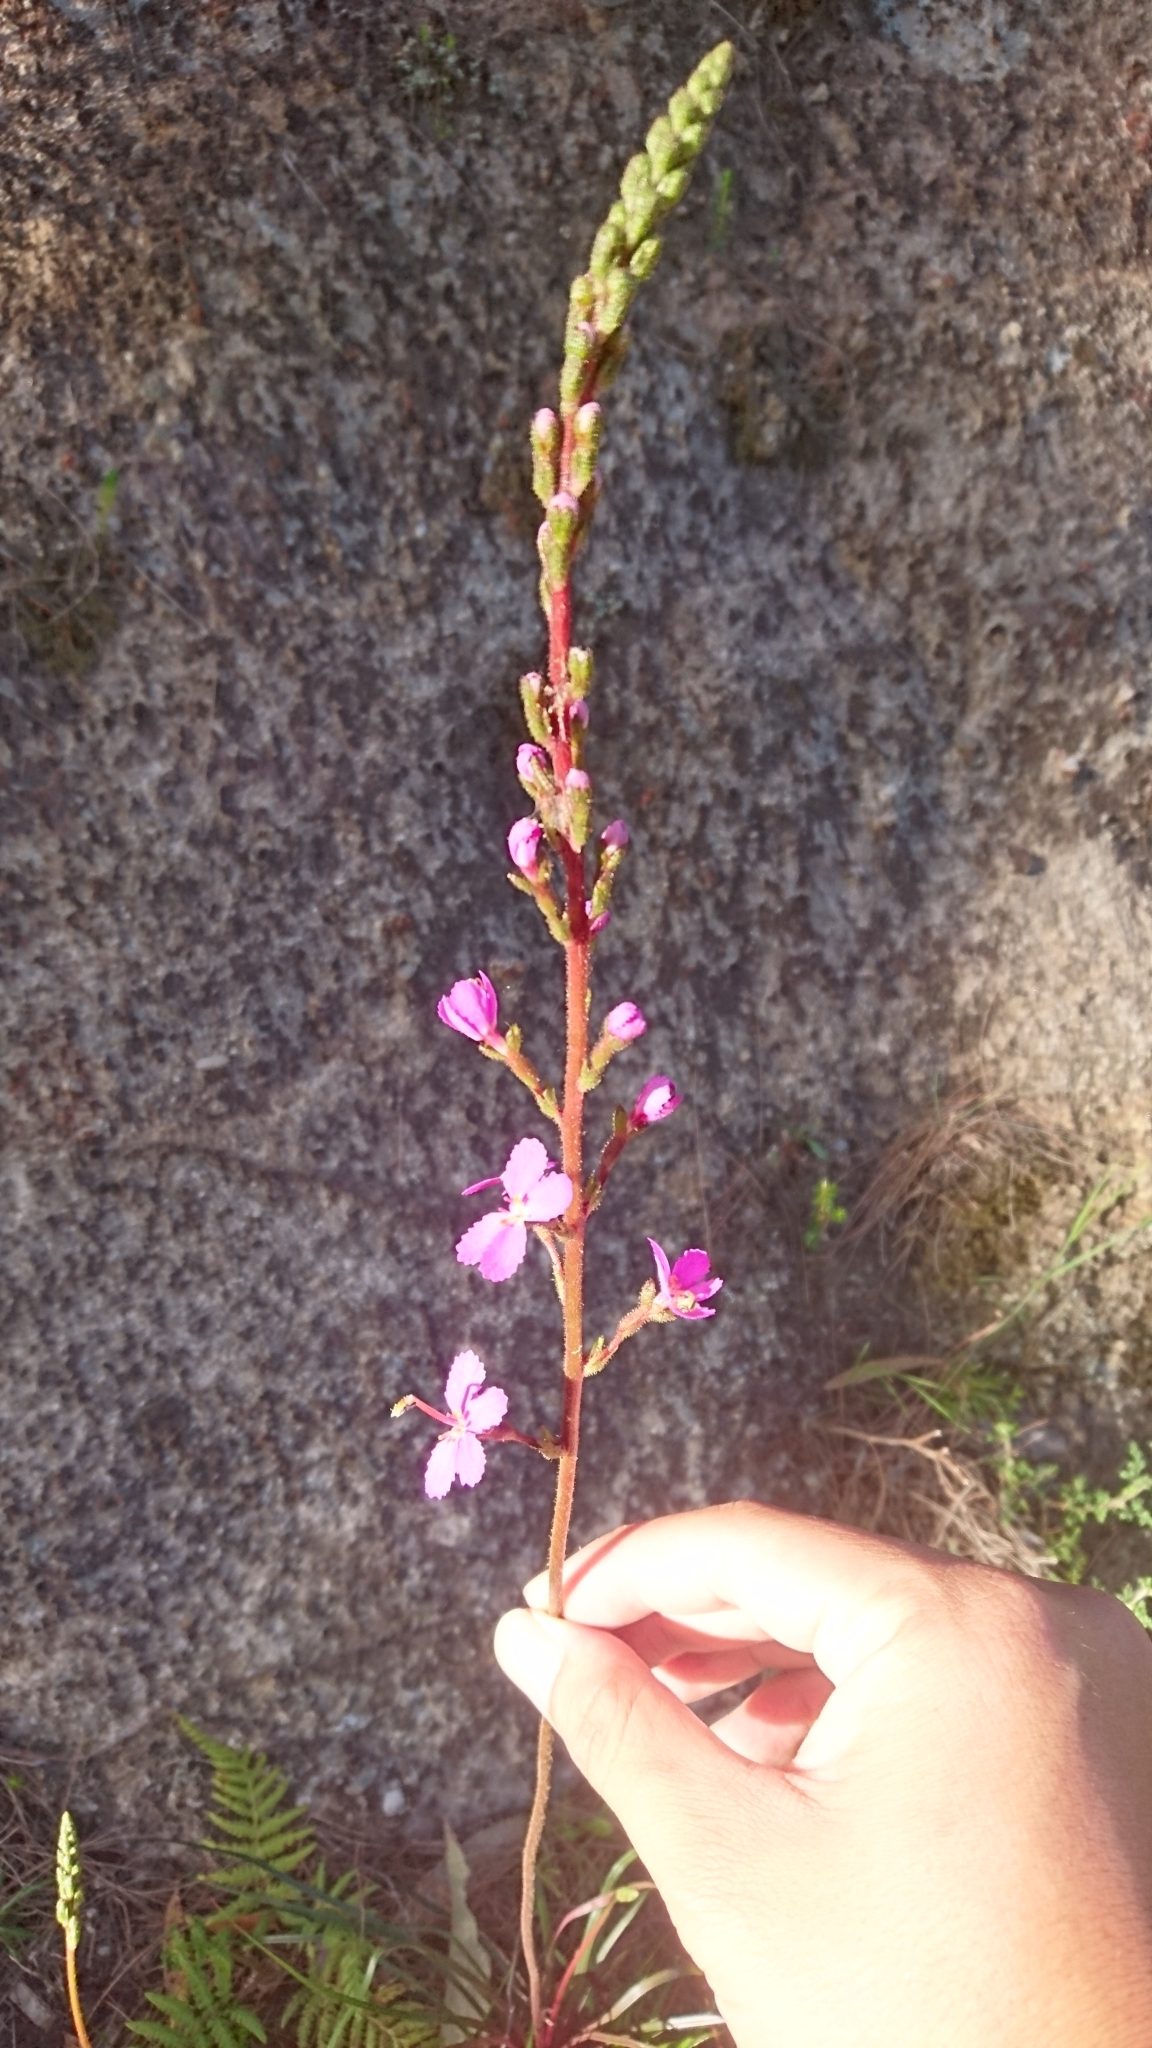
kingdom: Plantae
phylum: Tracheophyta
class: Magnoliopsida
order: Asterales
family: Stylidiaceae
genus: Stylidium
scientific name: Stylidium graminifolium
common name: Grass triggerplant
